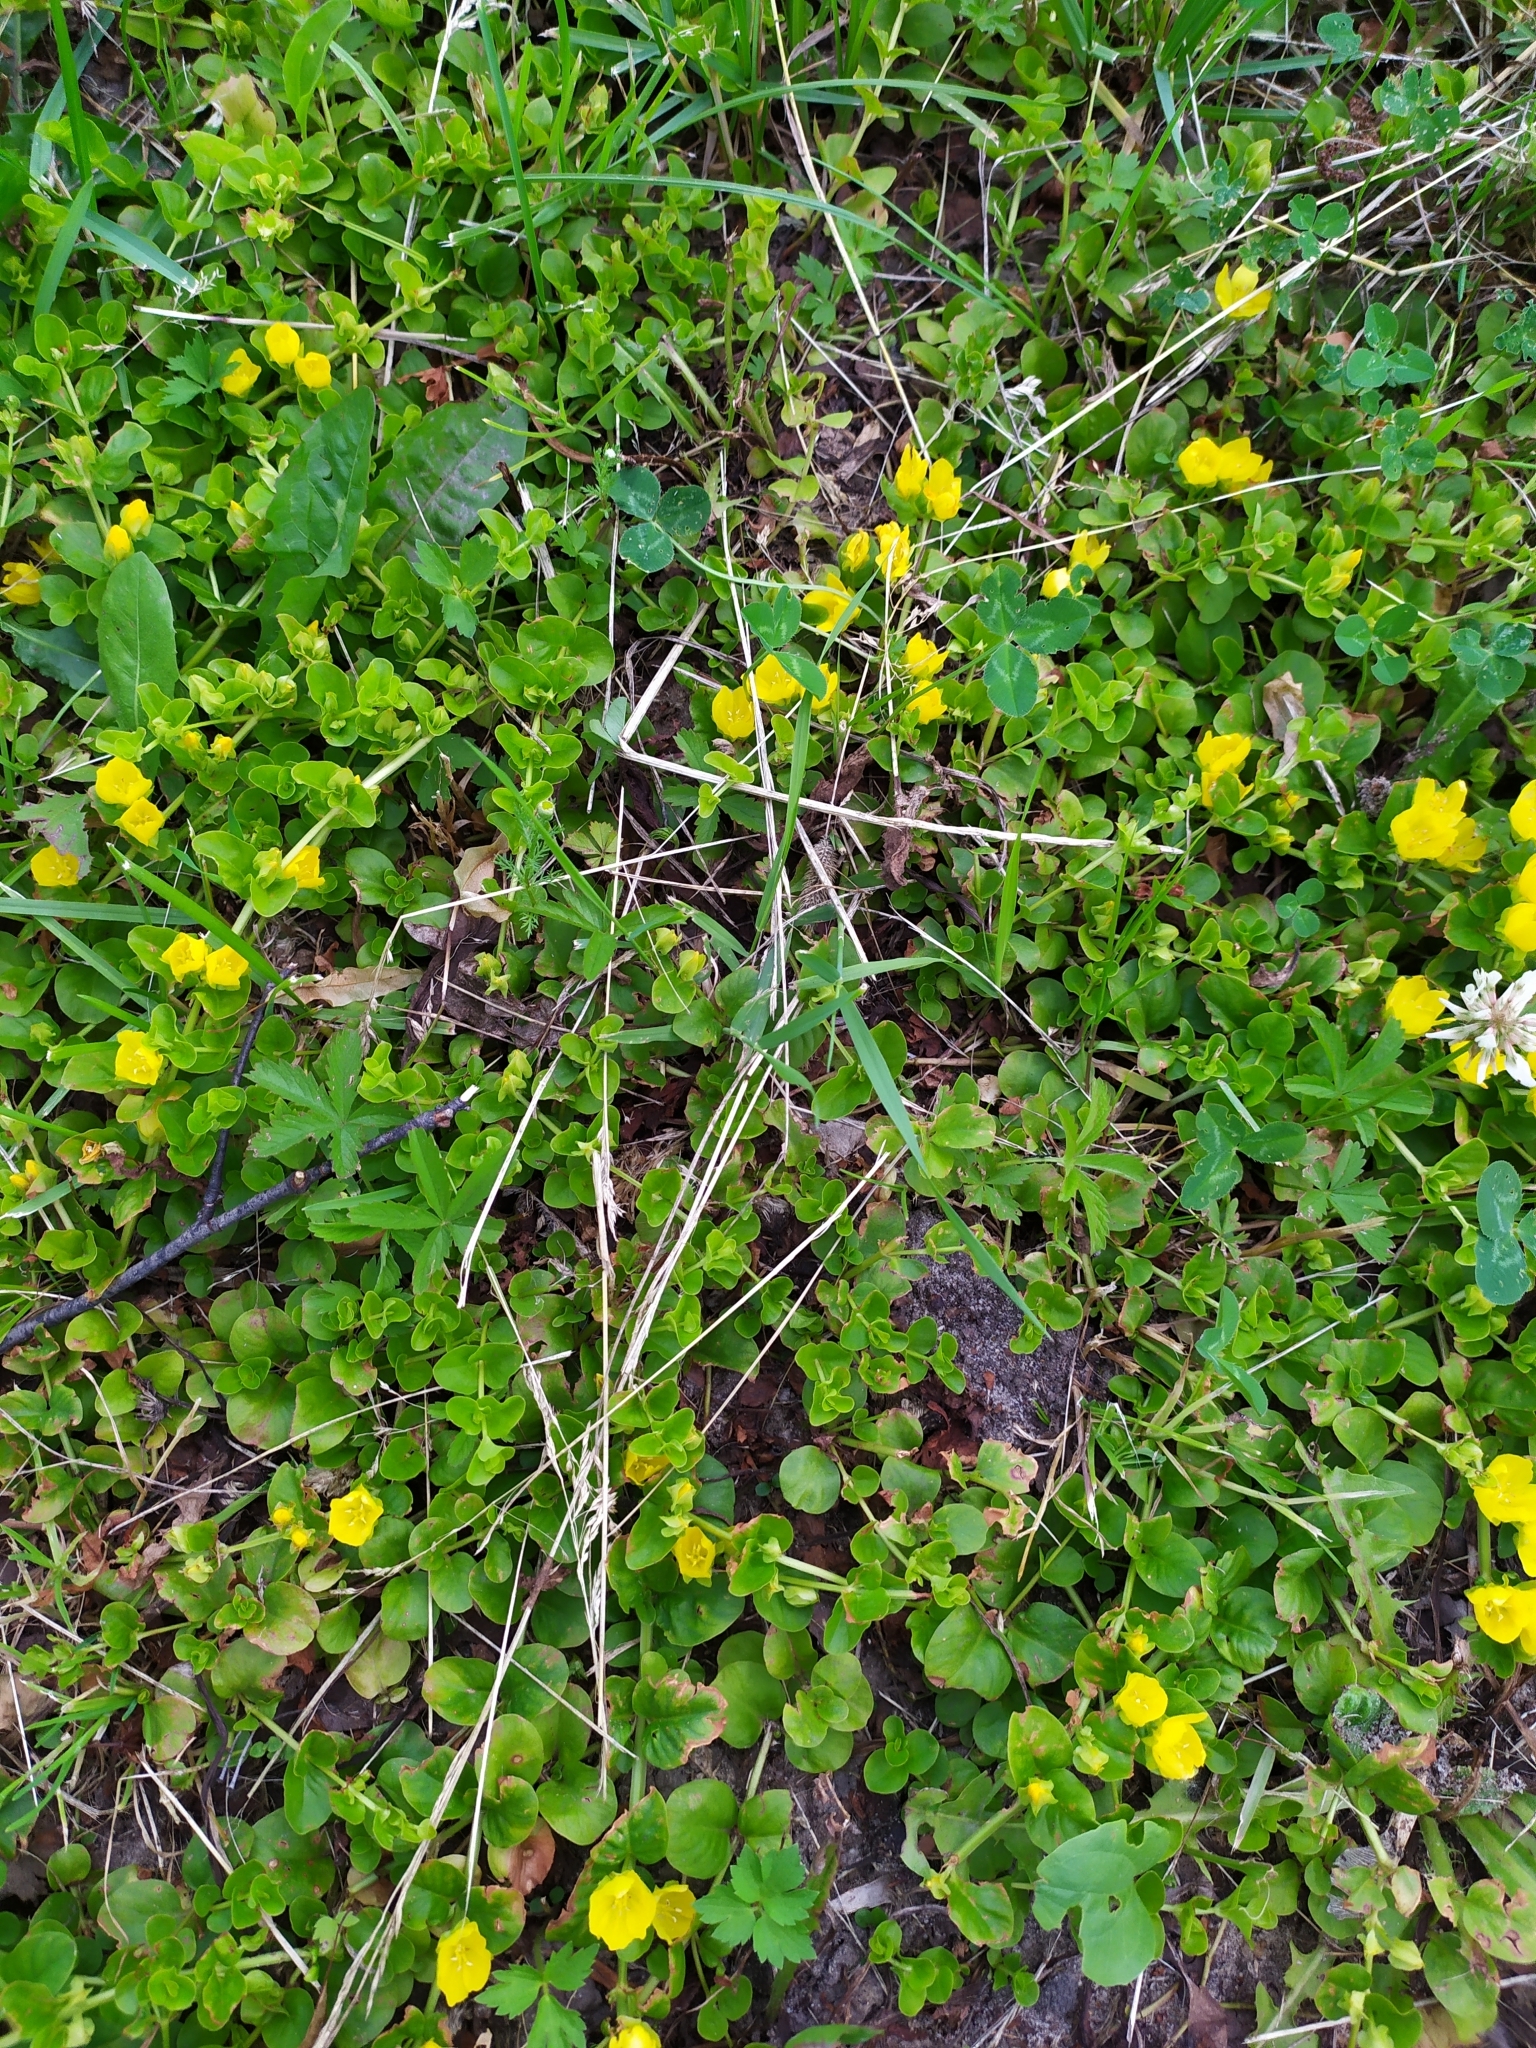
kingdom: Plantae
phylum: Tracheophyta
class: Magnoliopsida
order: Ericales
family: Primulaceae
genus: Lysimachia
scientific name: Lysimachia nummularia
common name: Moneywort
